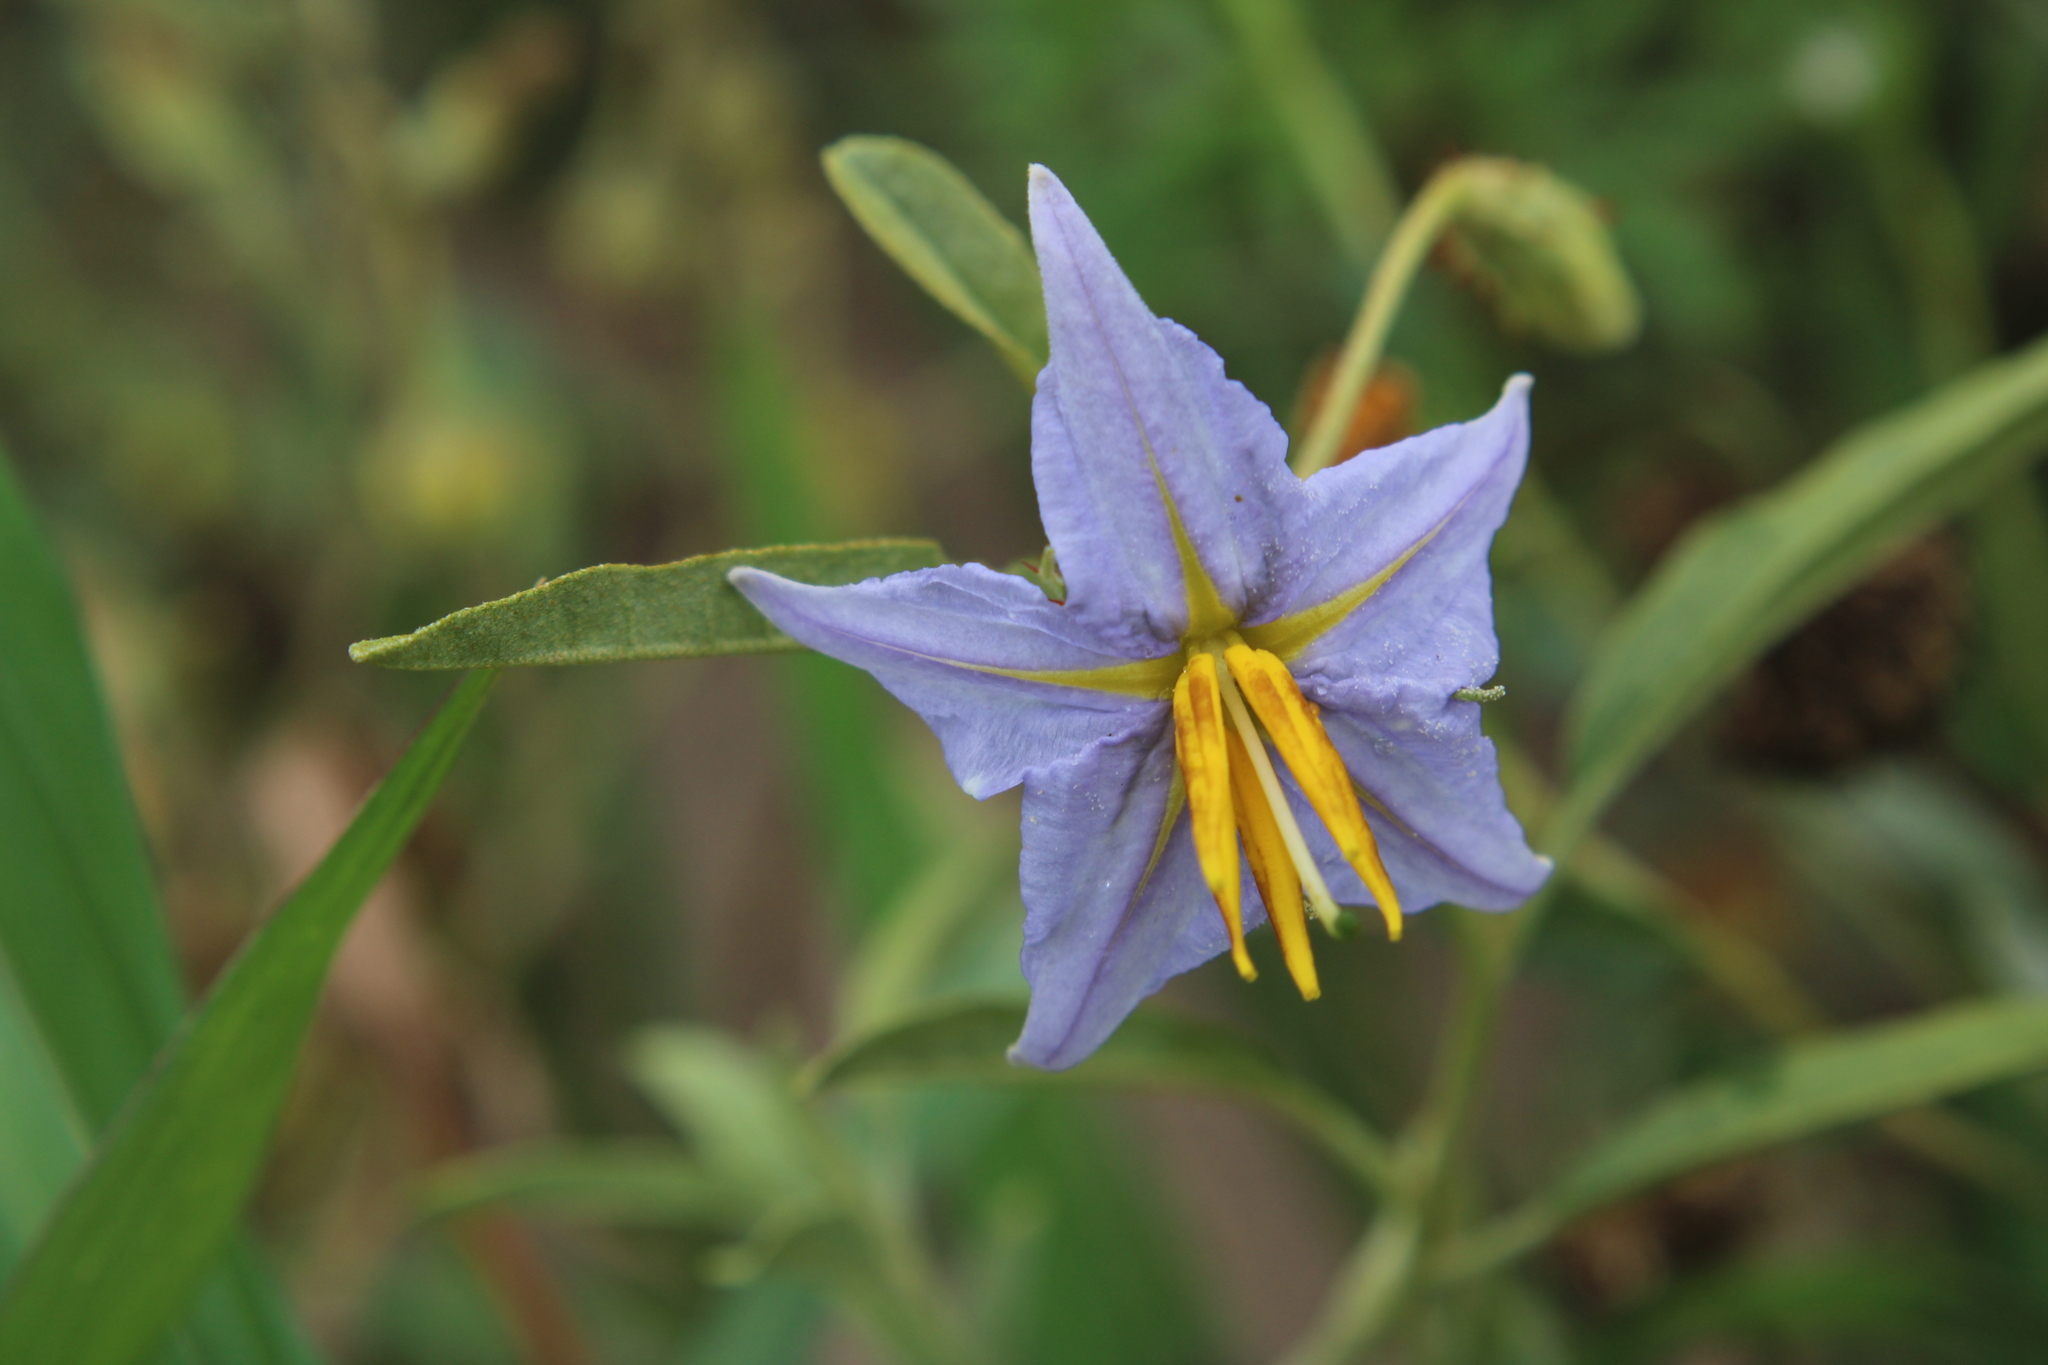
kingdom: Plantae
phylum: Tracheophyta
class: Magnoliopsida
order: Solanales
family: Solanaceae
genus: Solanum
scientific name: Solanum elaeagnifolium
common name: Silverleaf nightshade
